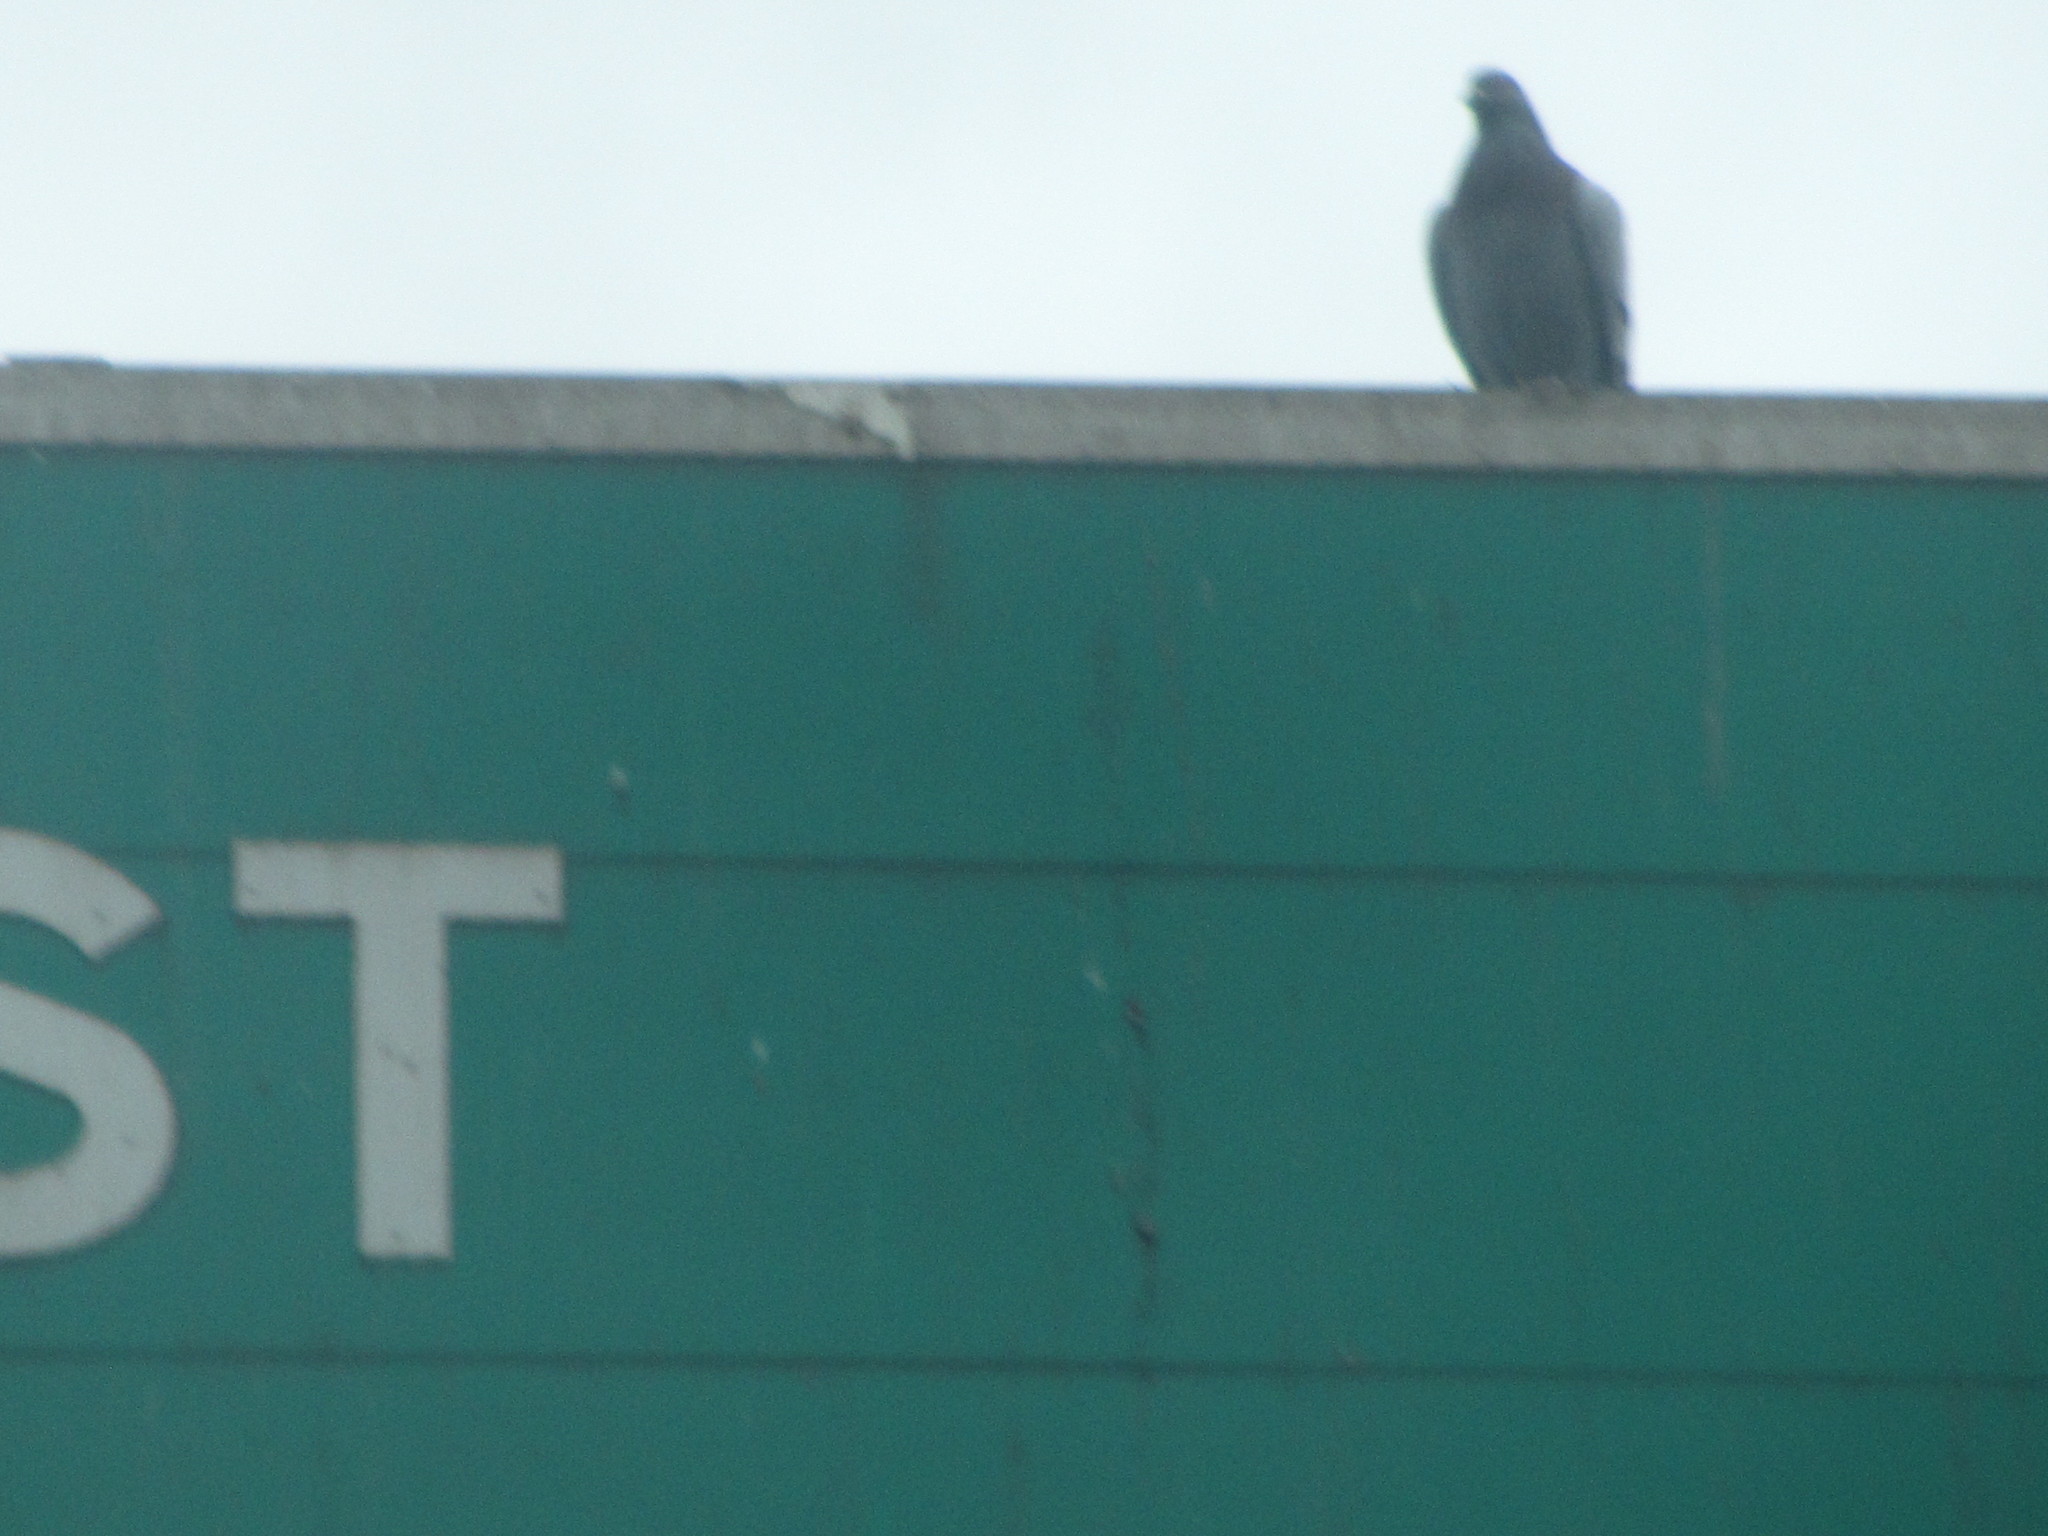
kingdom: Animalia
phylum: Chordata
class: Aves
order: Columbiformes
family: Columbidae
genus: Columba
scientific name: Columba livia
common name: Rock pigeon
